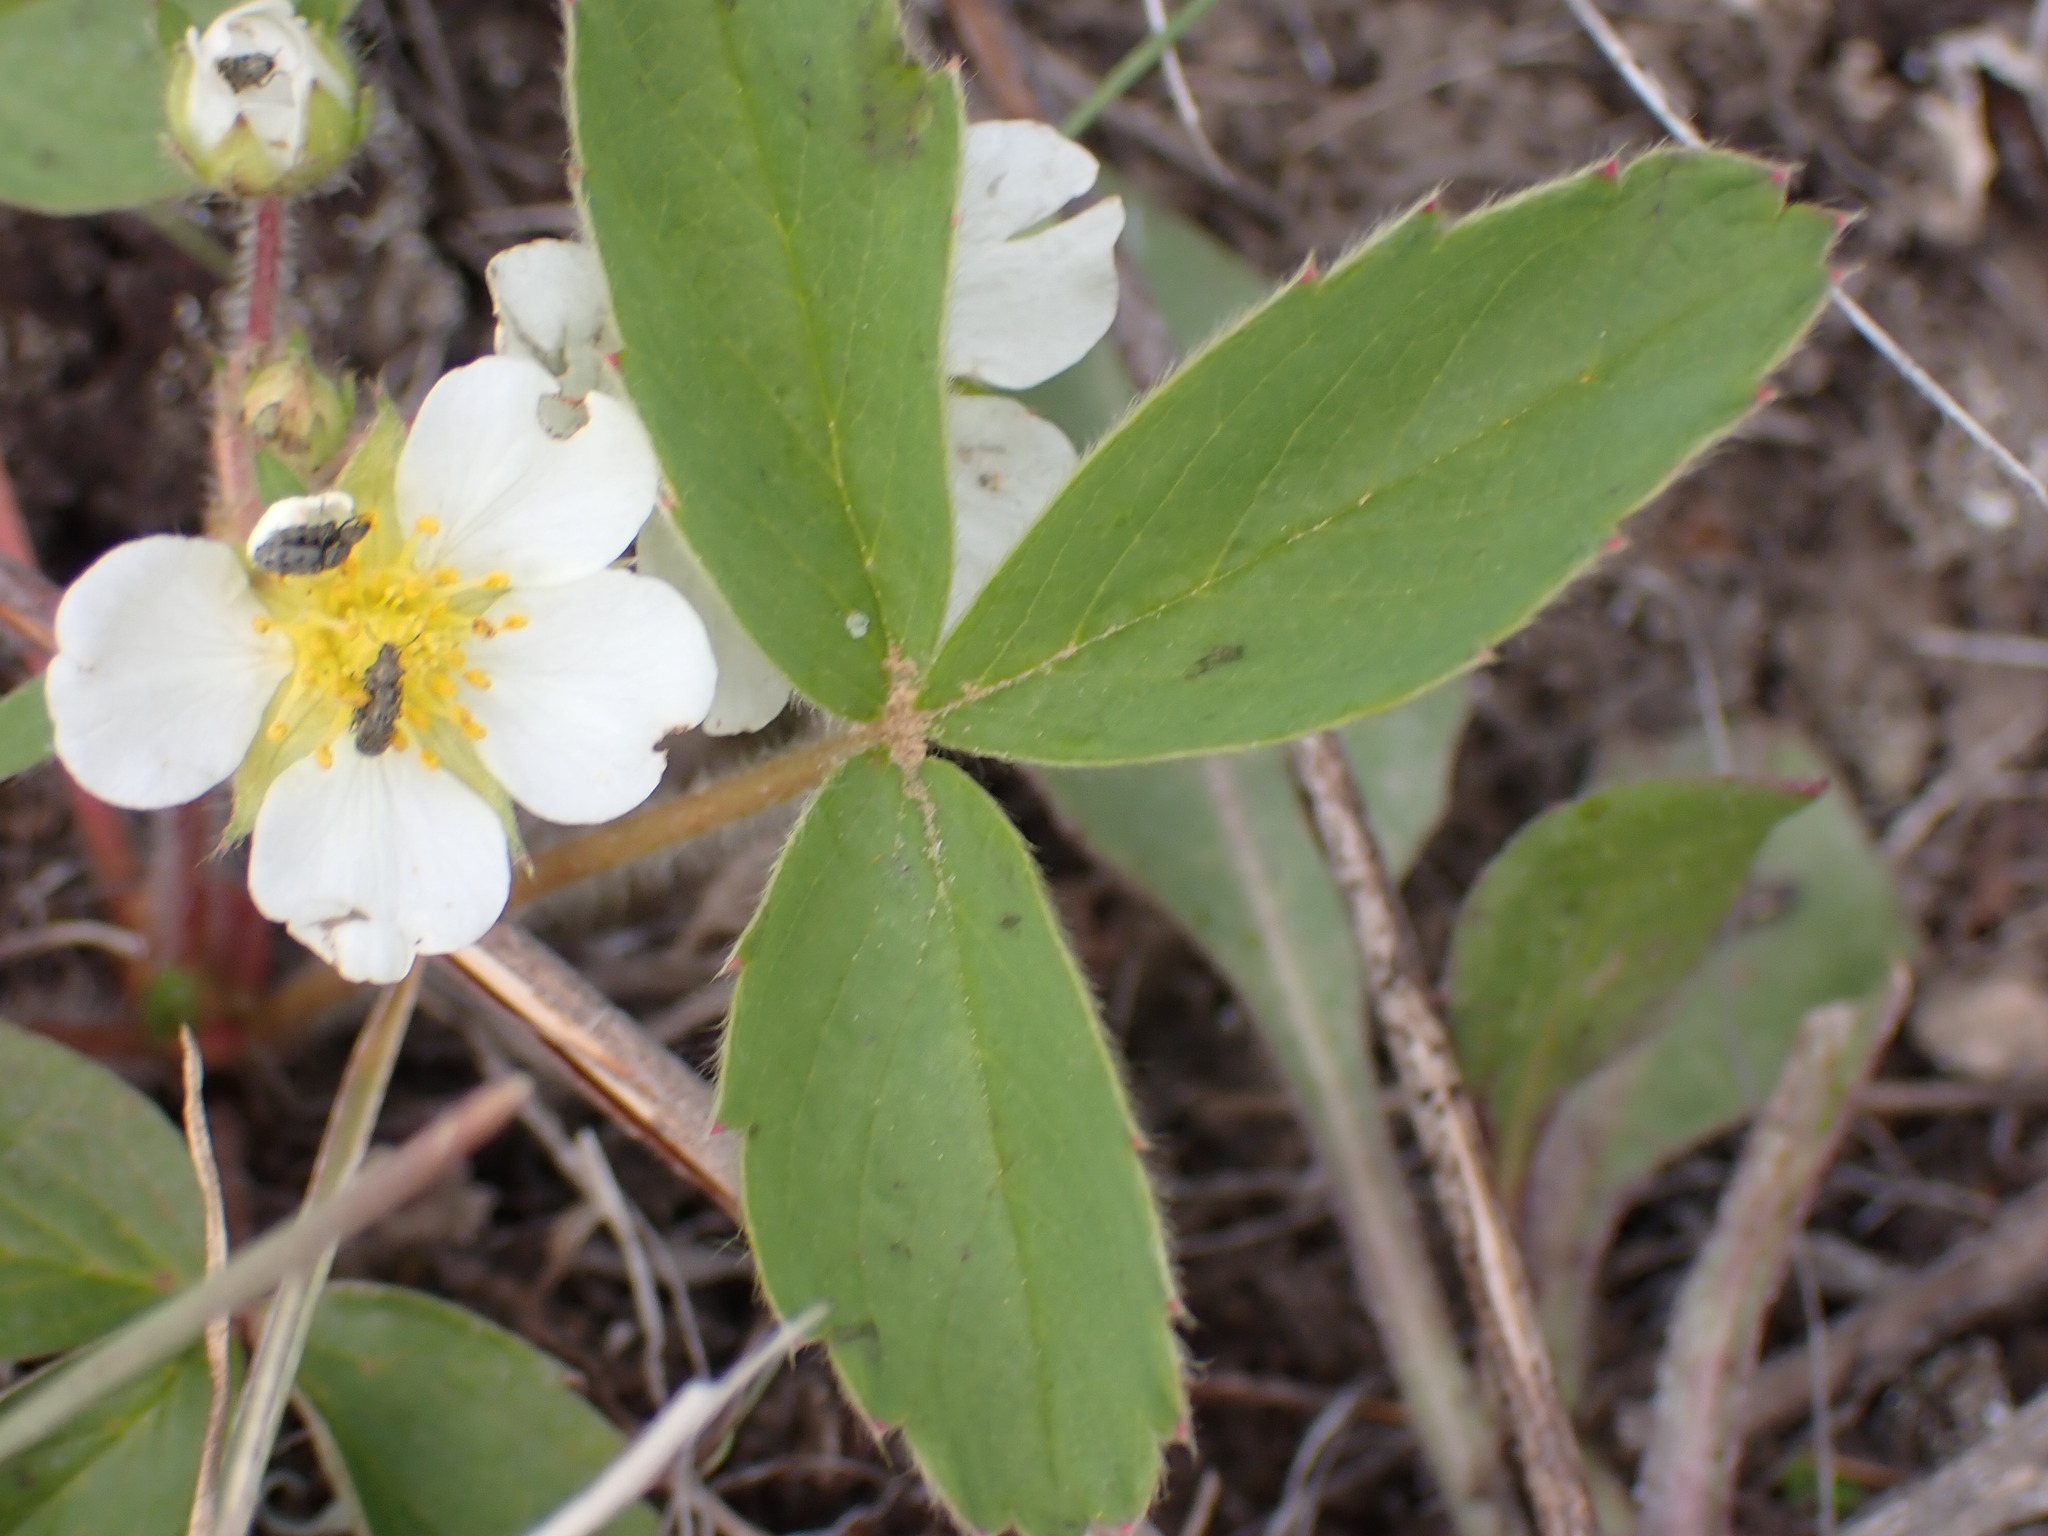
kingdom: Plantae
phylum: Tracheophyta
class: Magnoliopsida
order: Rosales
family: Rosaceae
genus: Fragaria
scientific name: Fragaria virginiana
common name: Thickleaved wild strawberry
